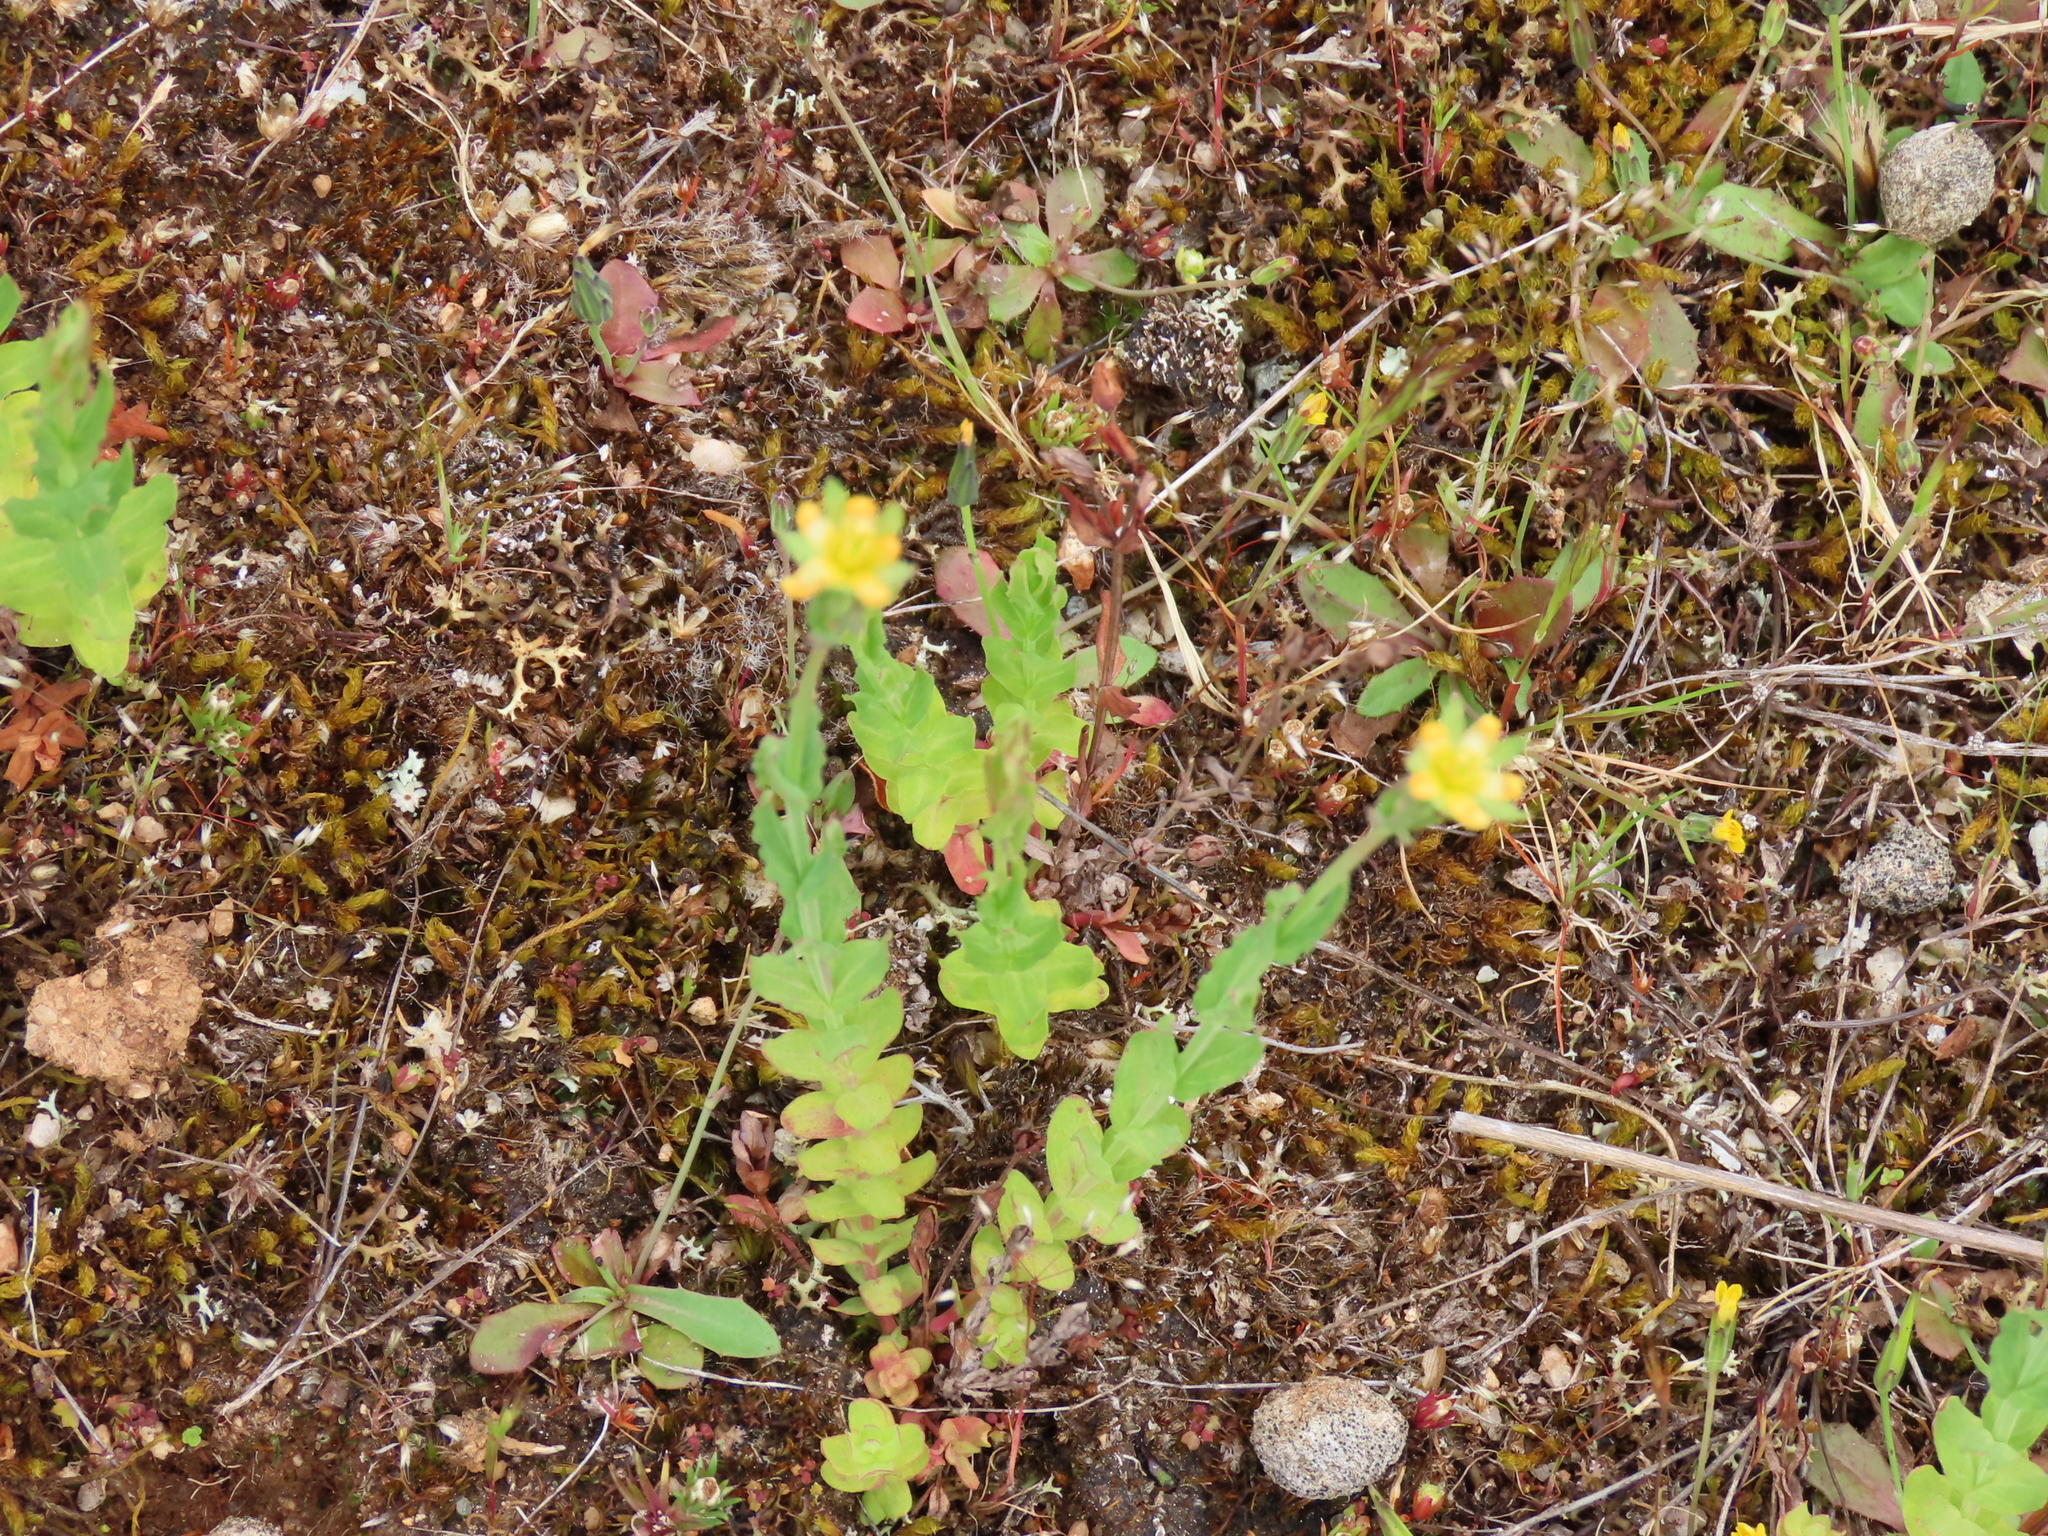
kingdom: Plantae
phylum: Tracheophyta
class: Magnoliopsida
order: Malpighiales
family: Hypericaceae
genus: Hypericum
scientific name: Hypericum gramineum
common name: Grassy st. johnswort
